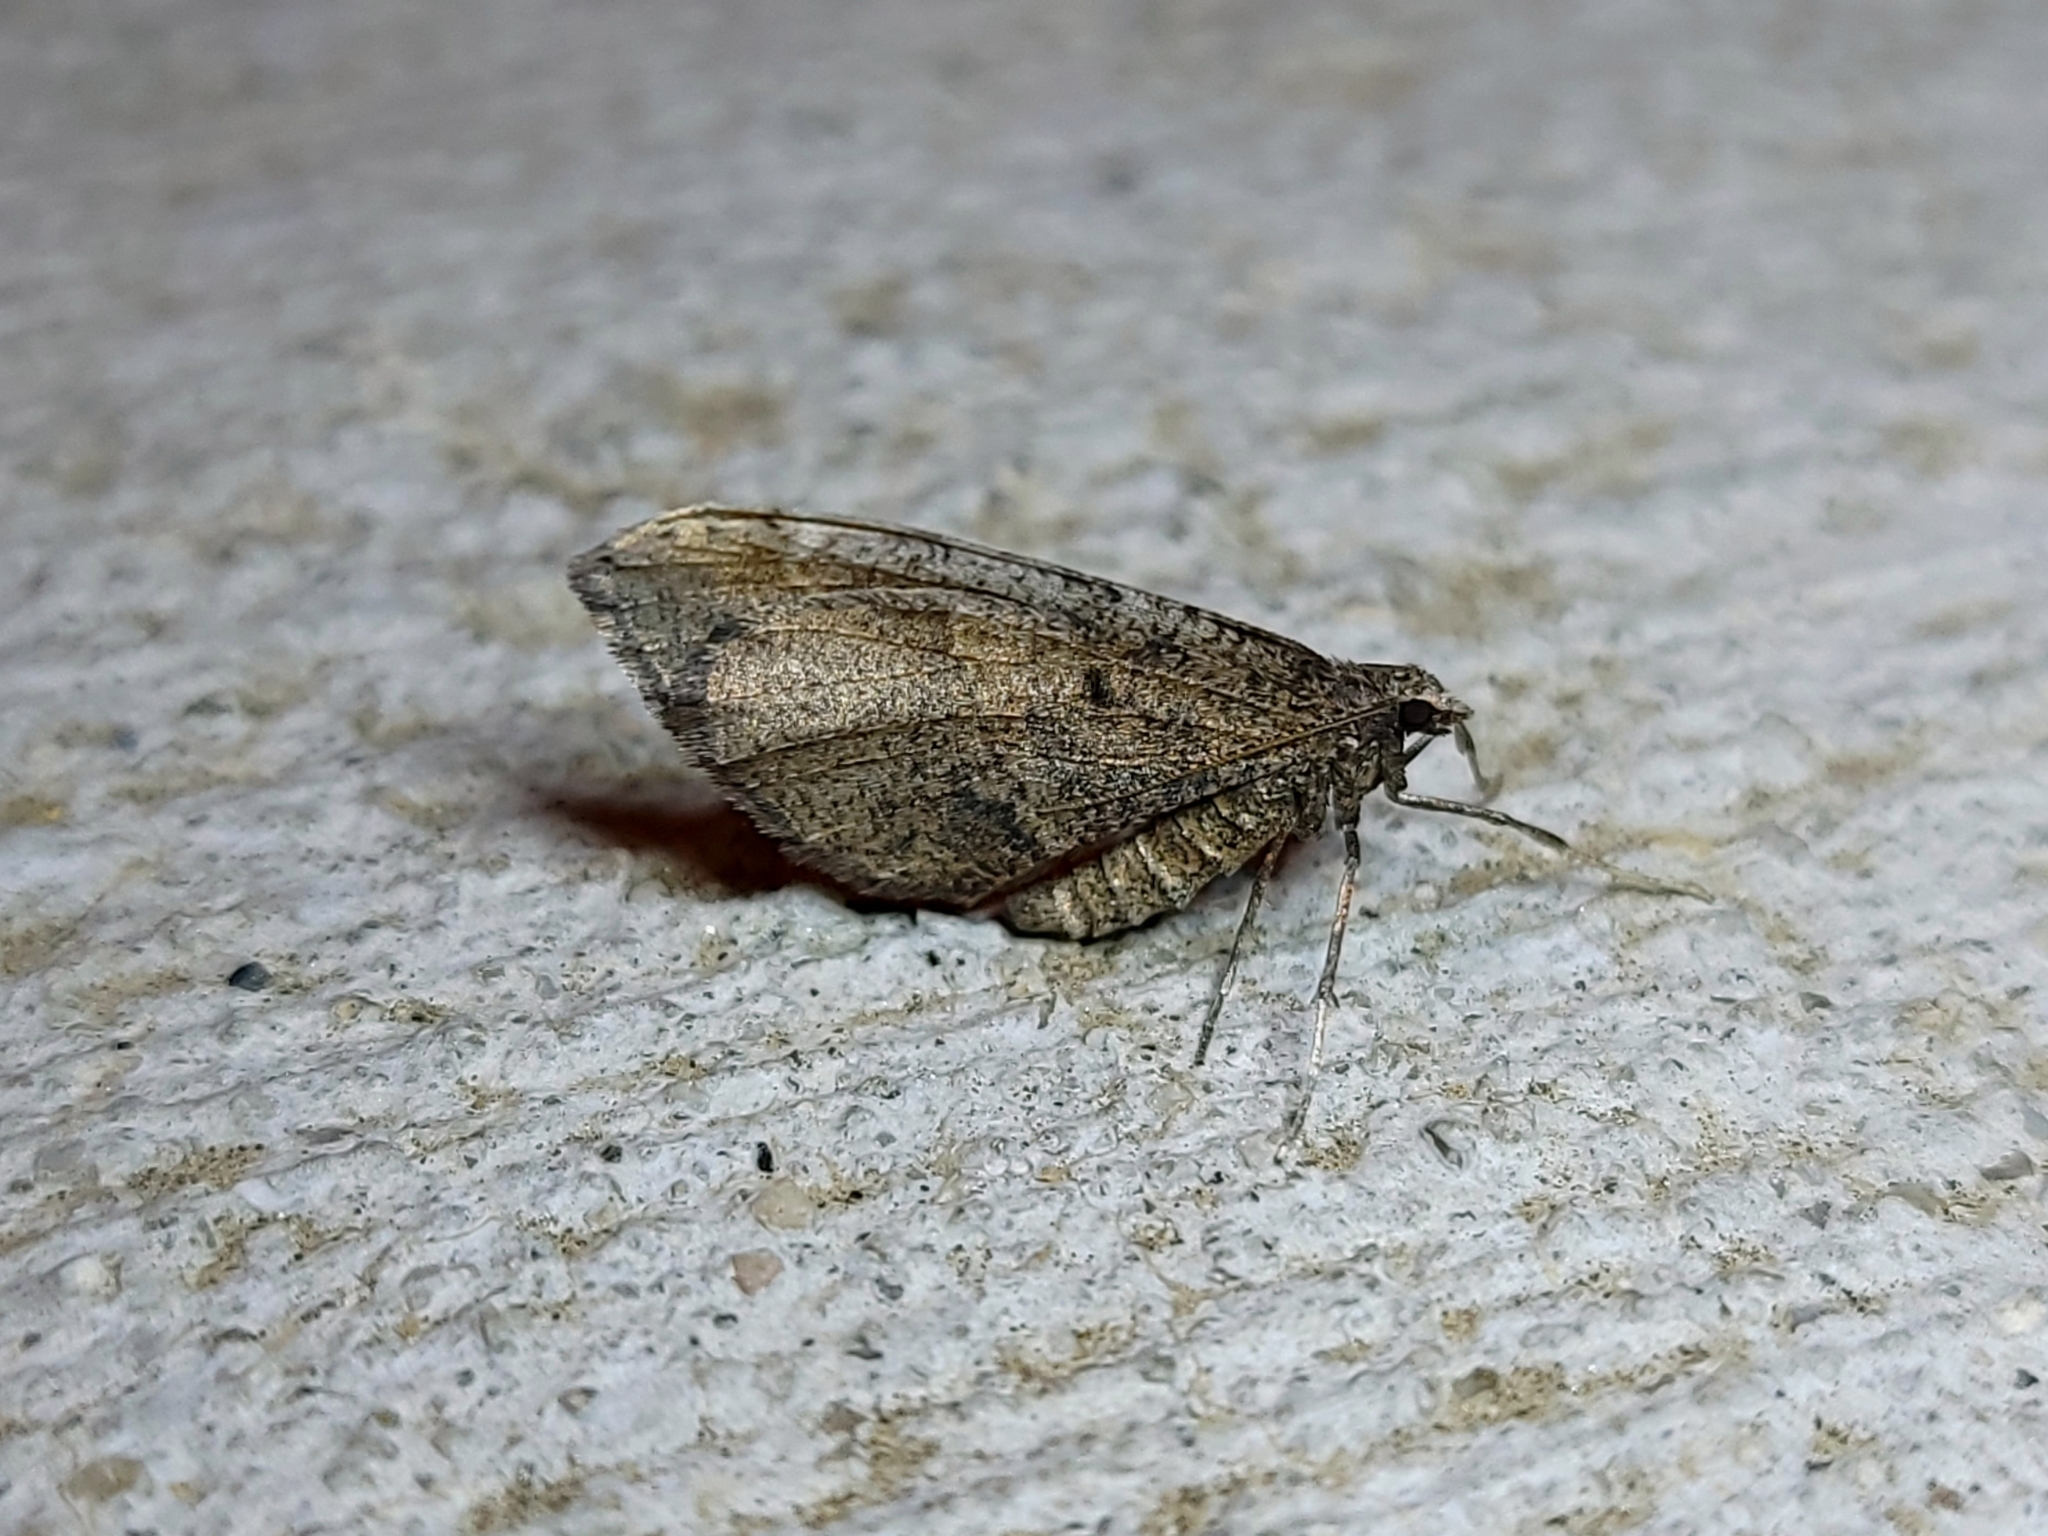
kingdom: Animalia
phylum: Arthropoda
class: Insecta
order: Lepidoptera
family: Geometridae
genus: Stamnodes
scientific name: Stamnodes affiliata
